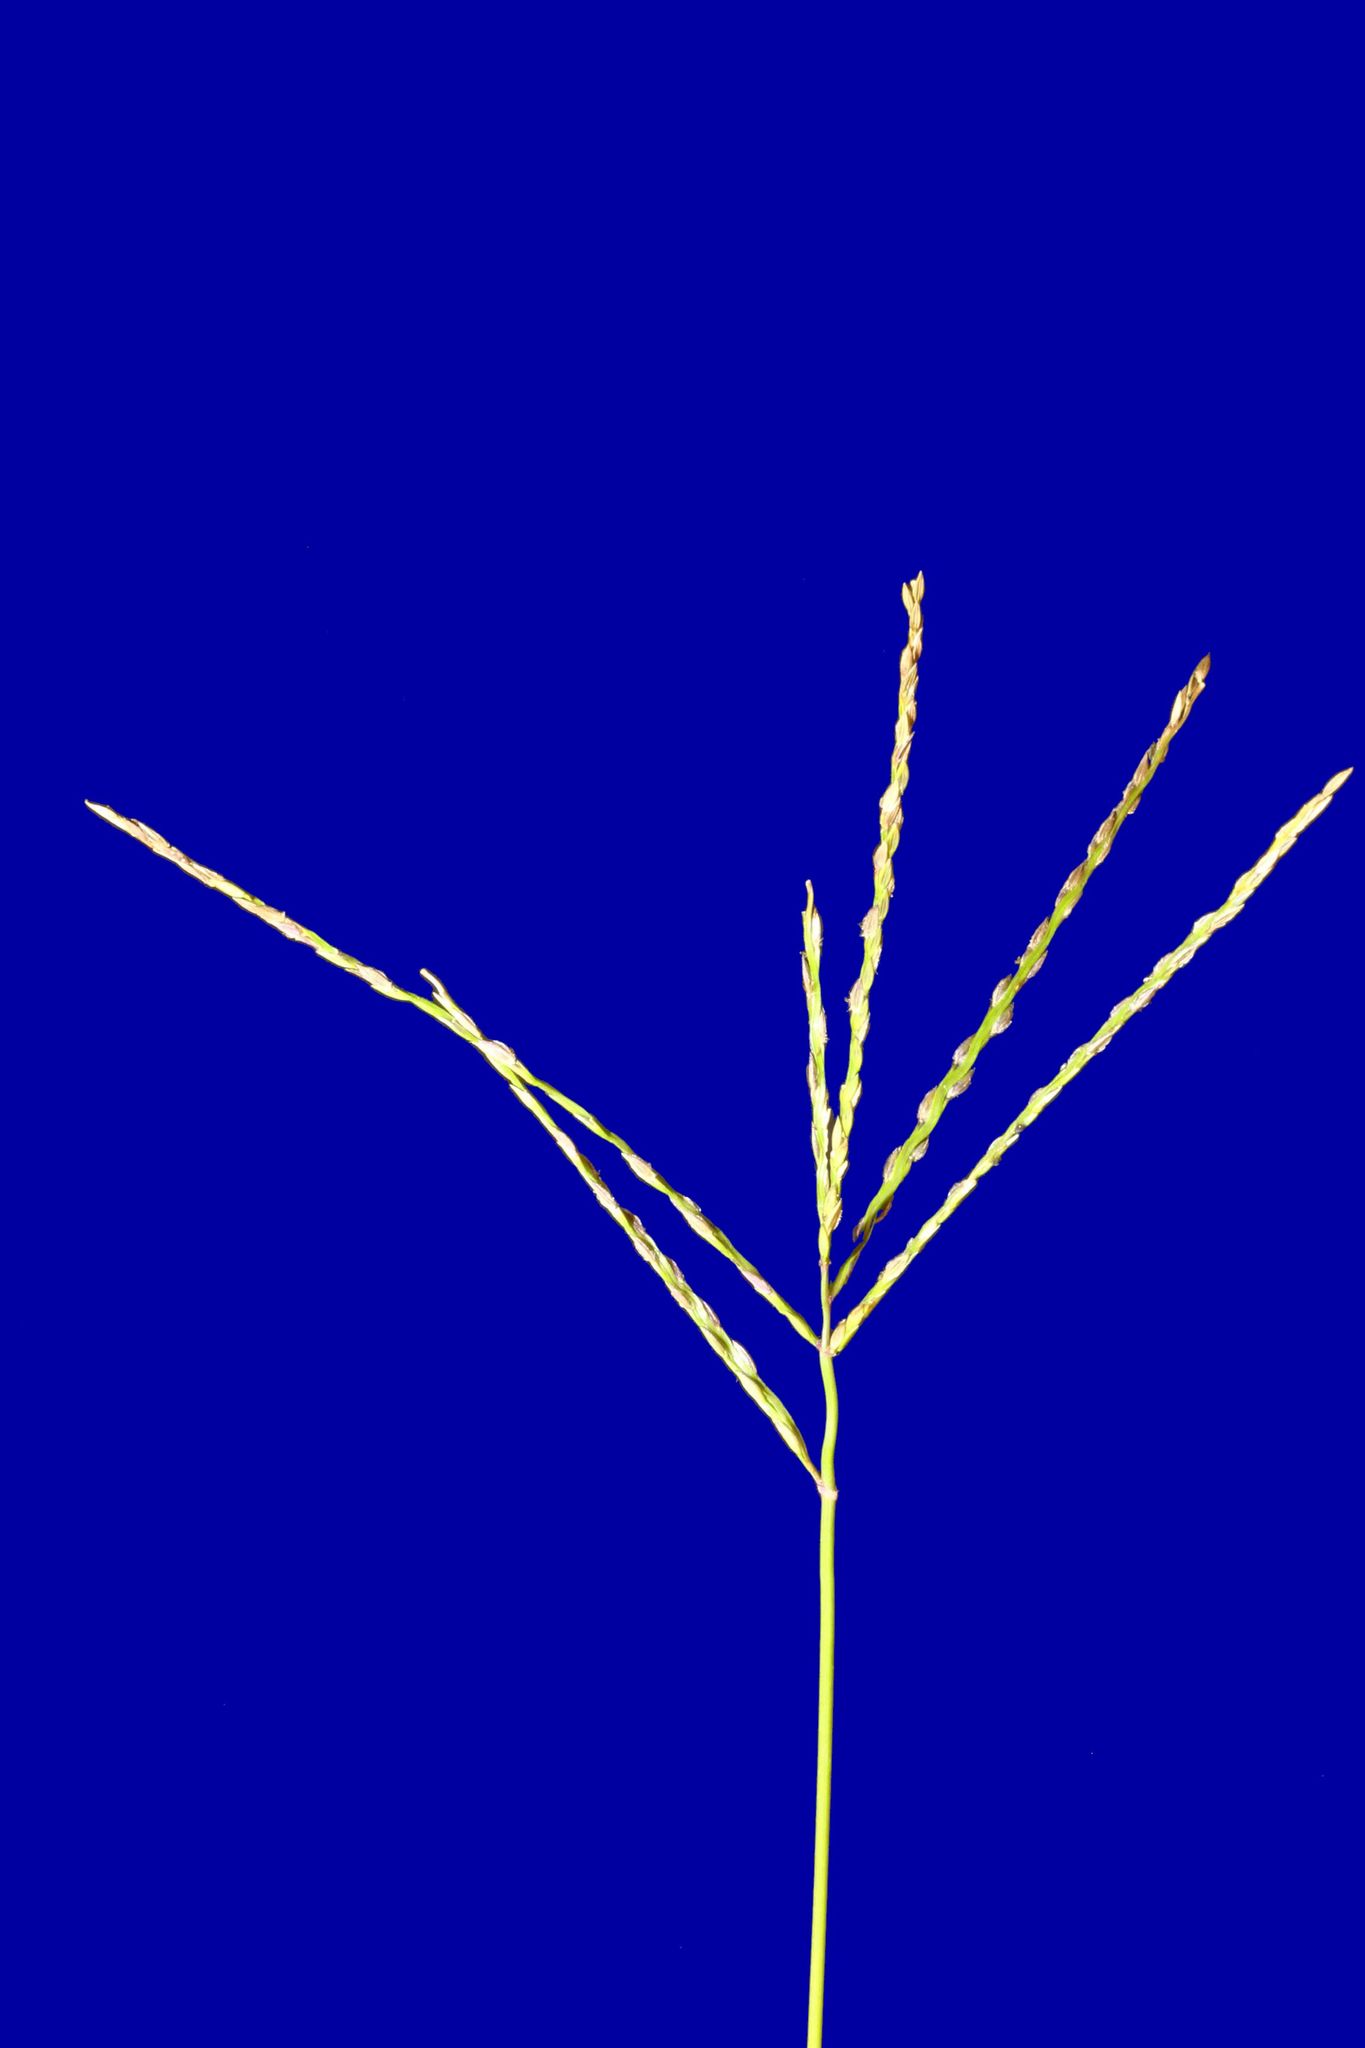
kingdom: Plantae
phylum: Tracheophyta
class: Liliopsida
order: Poales
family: Poaceae
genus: Digitaria
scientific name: Digitaria sanguinalis
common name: Hairy crabgrass
